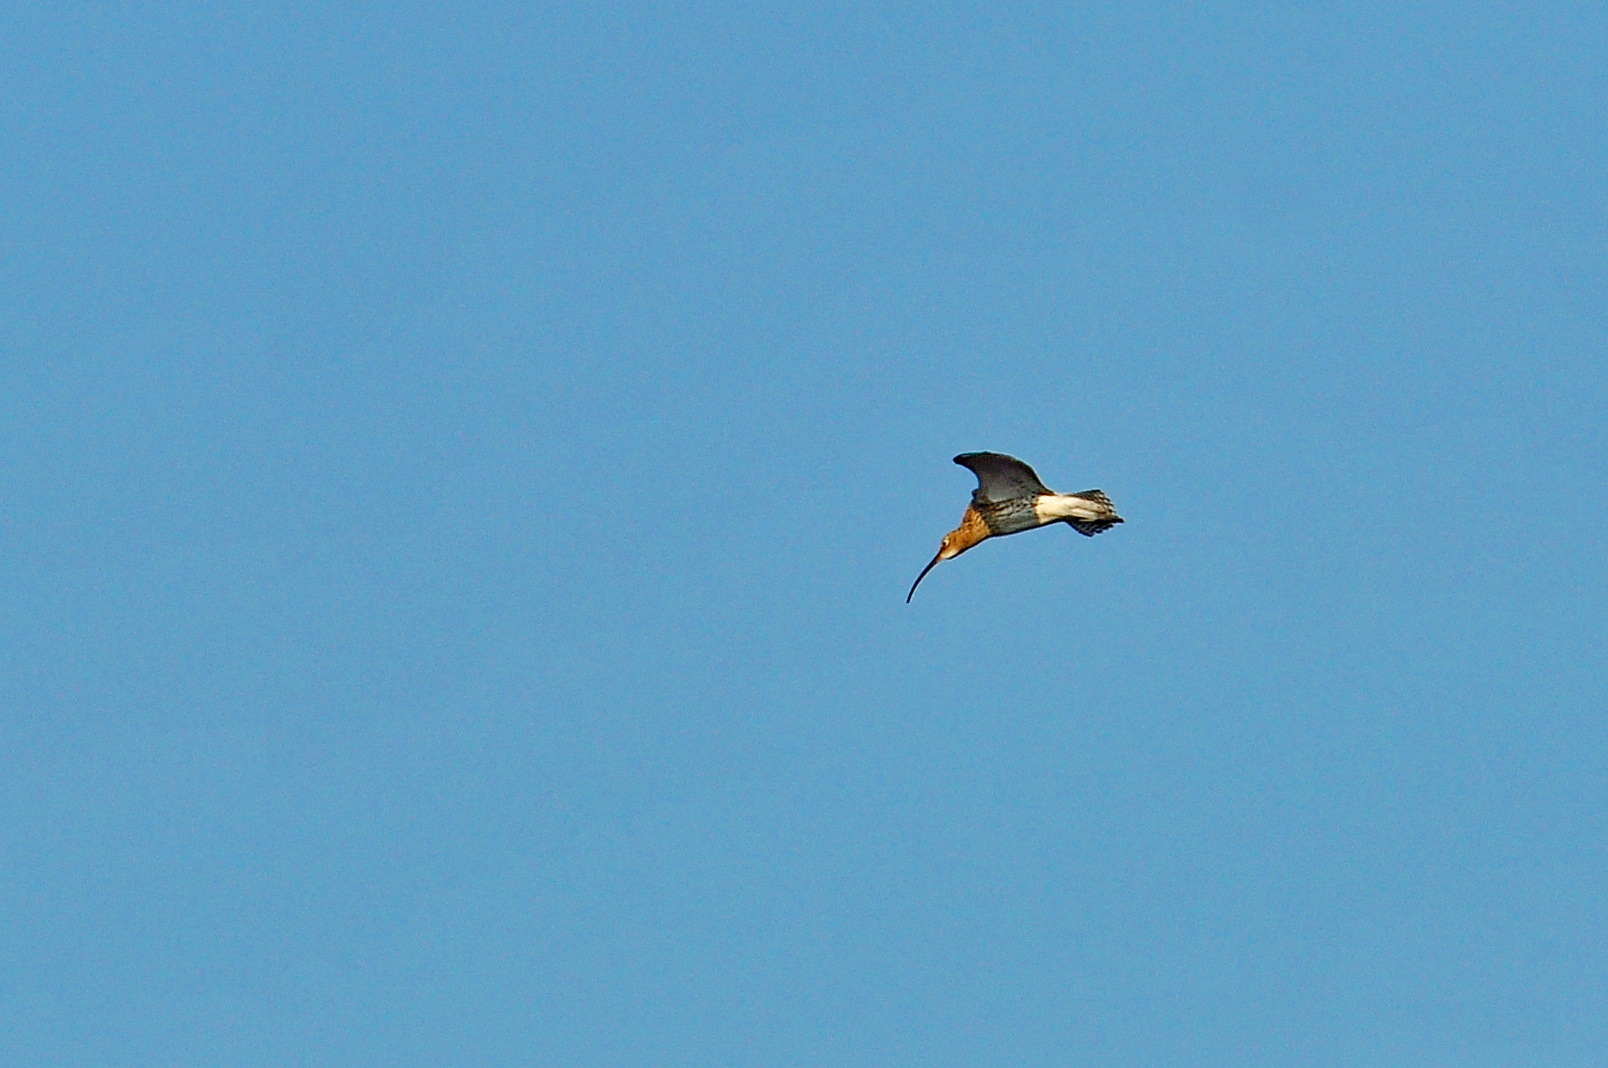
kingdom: Animalia
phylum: Chordata
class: Aves
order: Charadriiformes
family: Scolopacidae
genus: Numenius
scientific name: Numenius arquata
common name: Eurasian curlew
